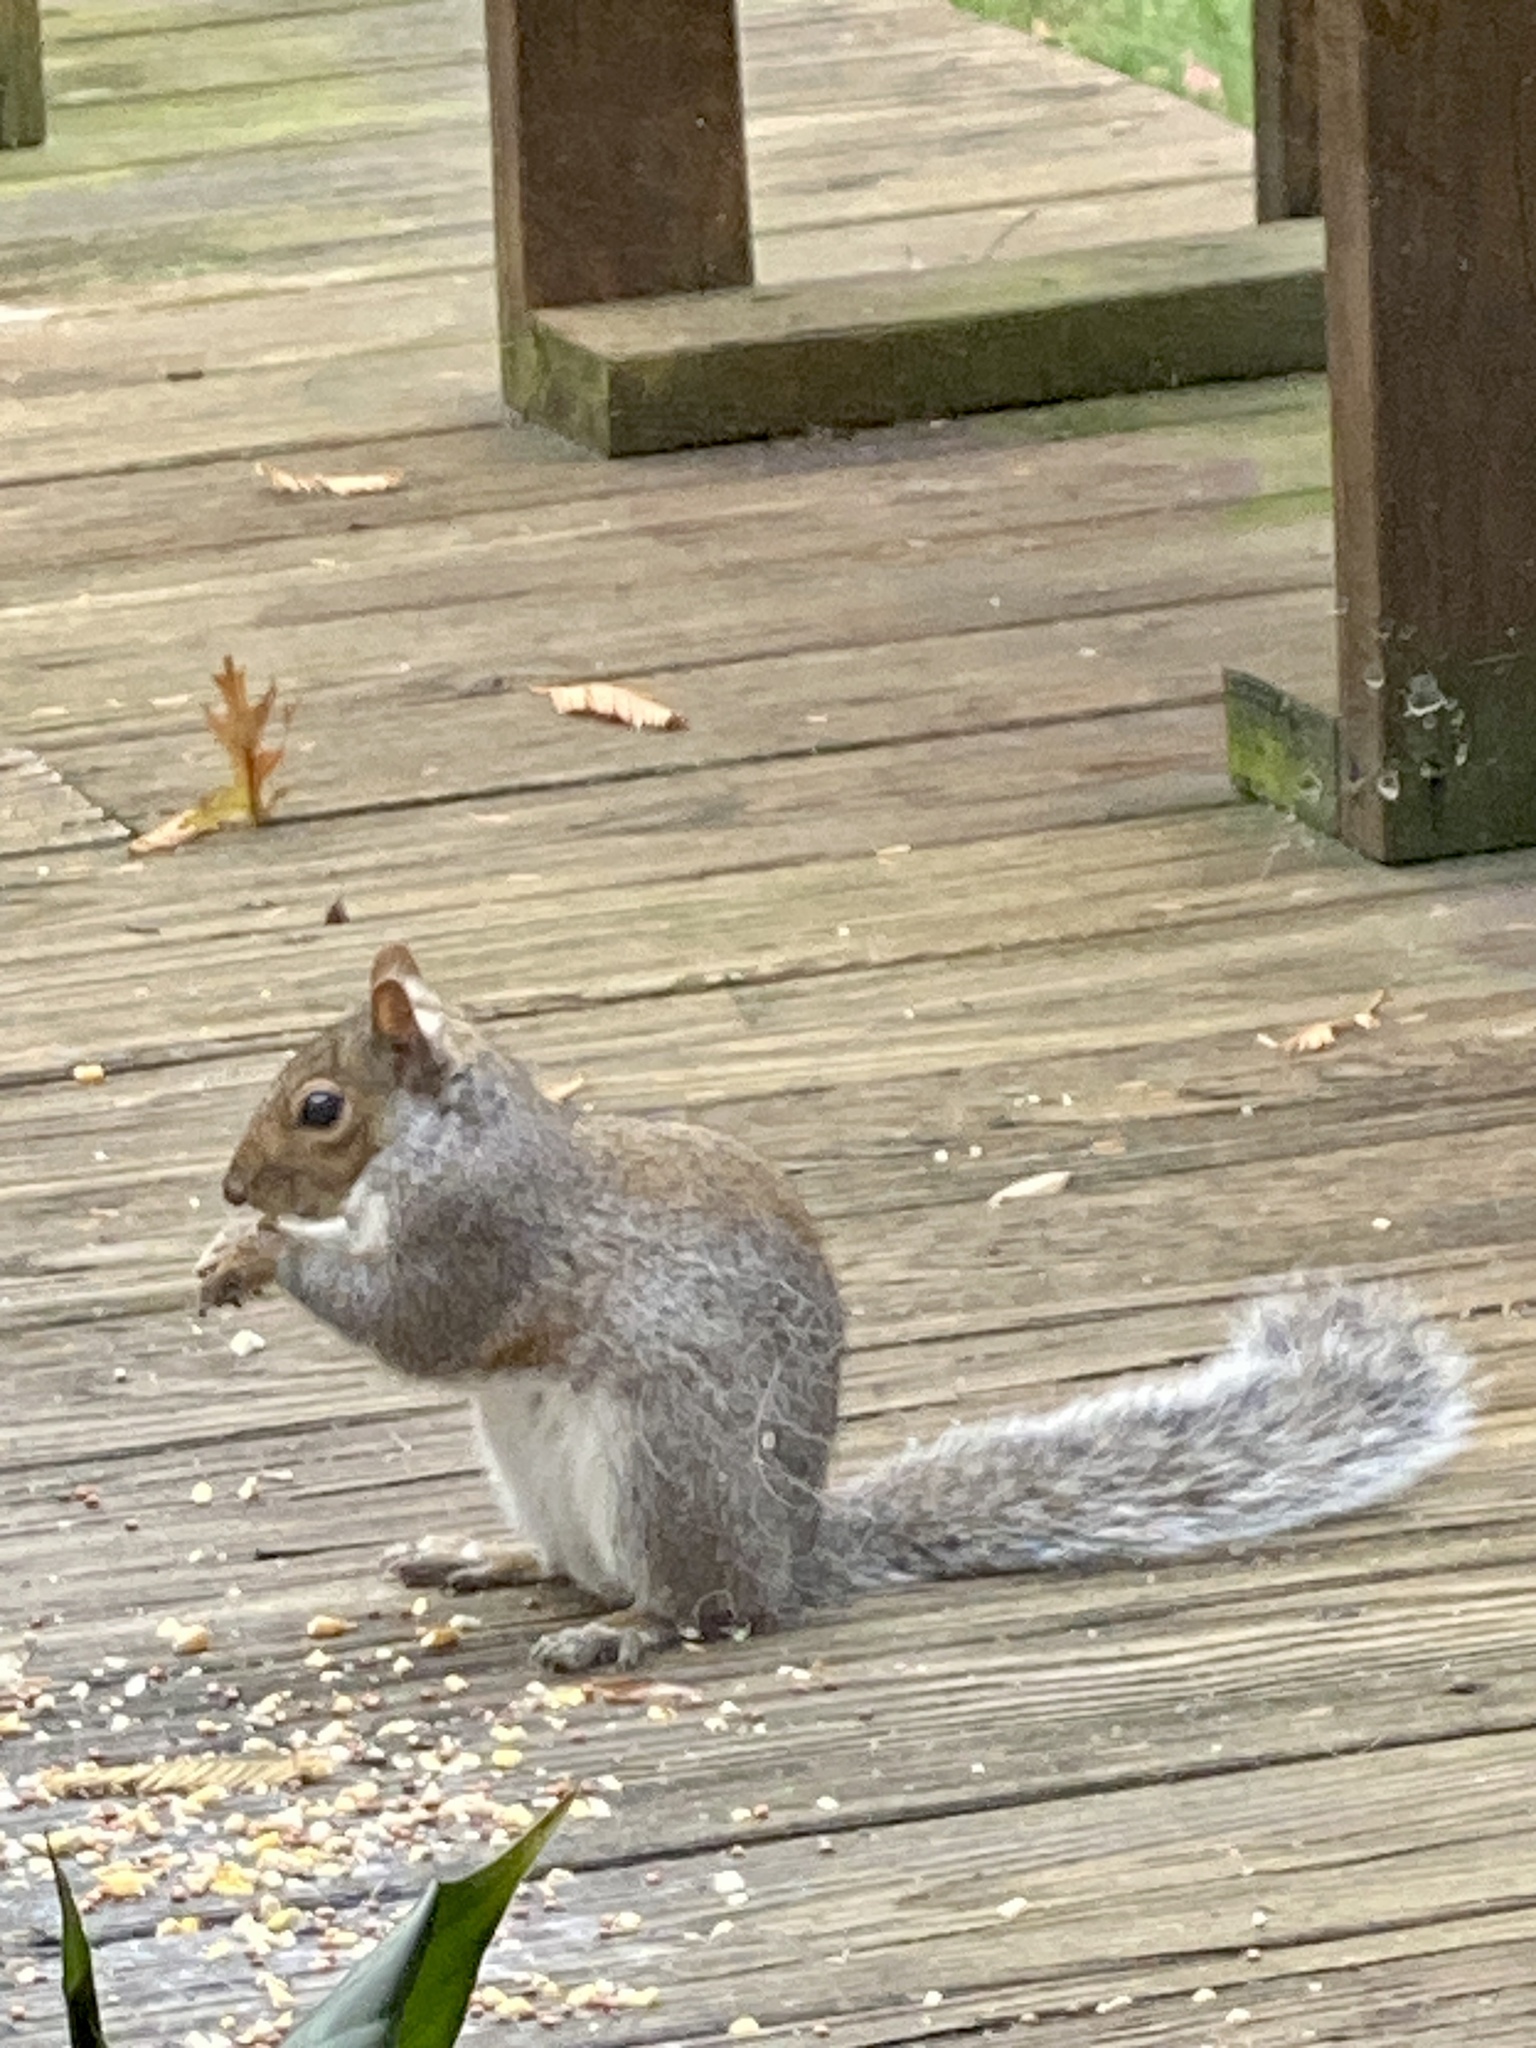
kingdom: Animalia
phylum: Chordata
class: Mammalia
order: Rodentia
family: Sciuridae
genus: Sciurus
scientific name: Sciurus carolinensis
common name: Eastern gray squirrel
